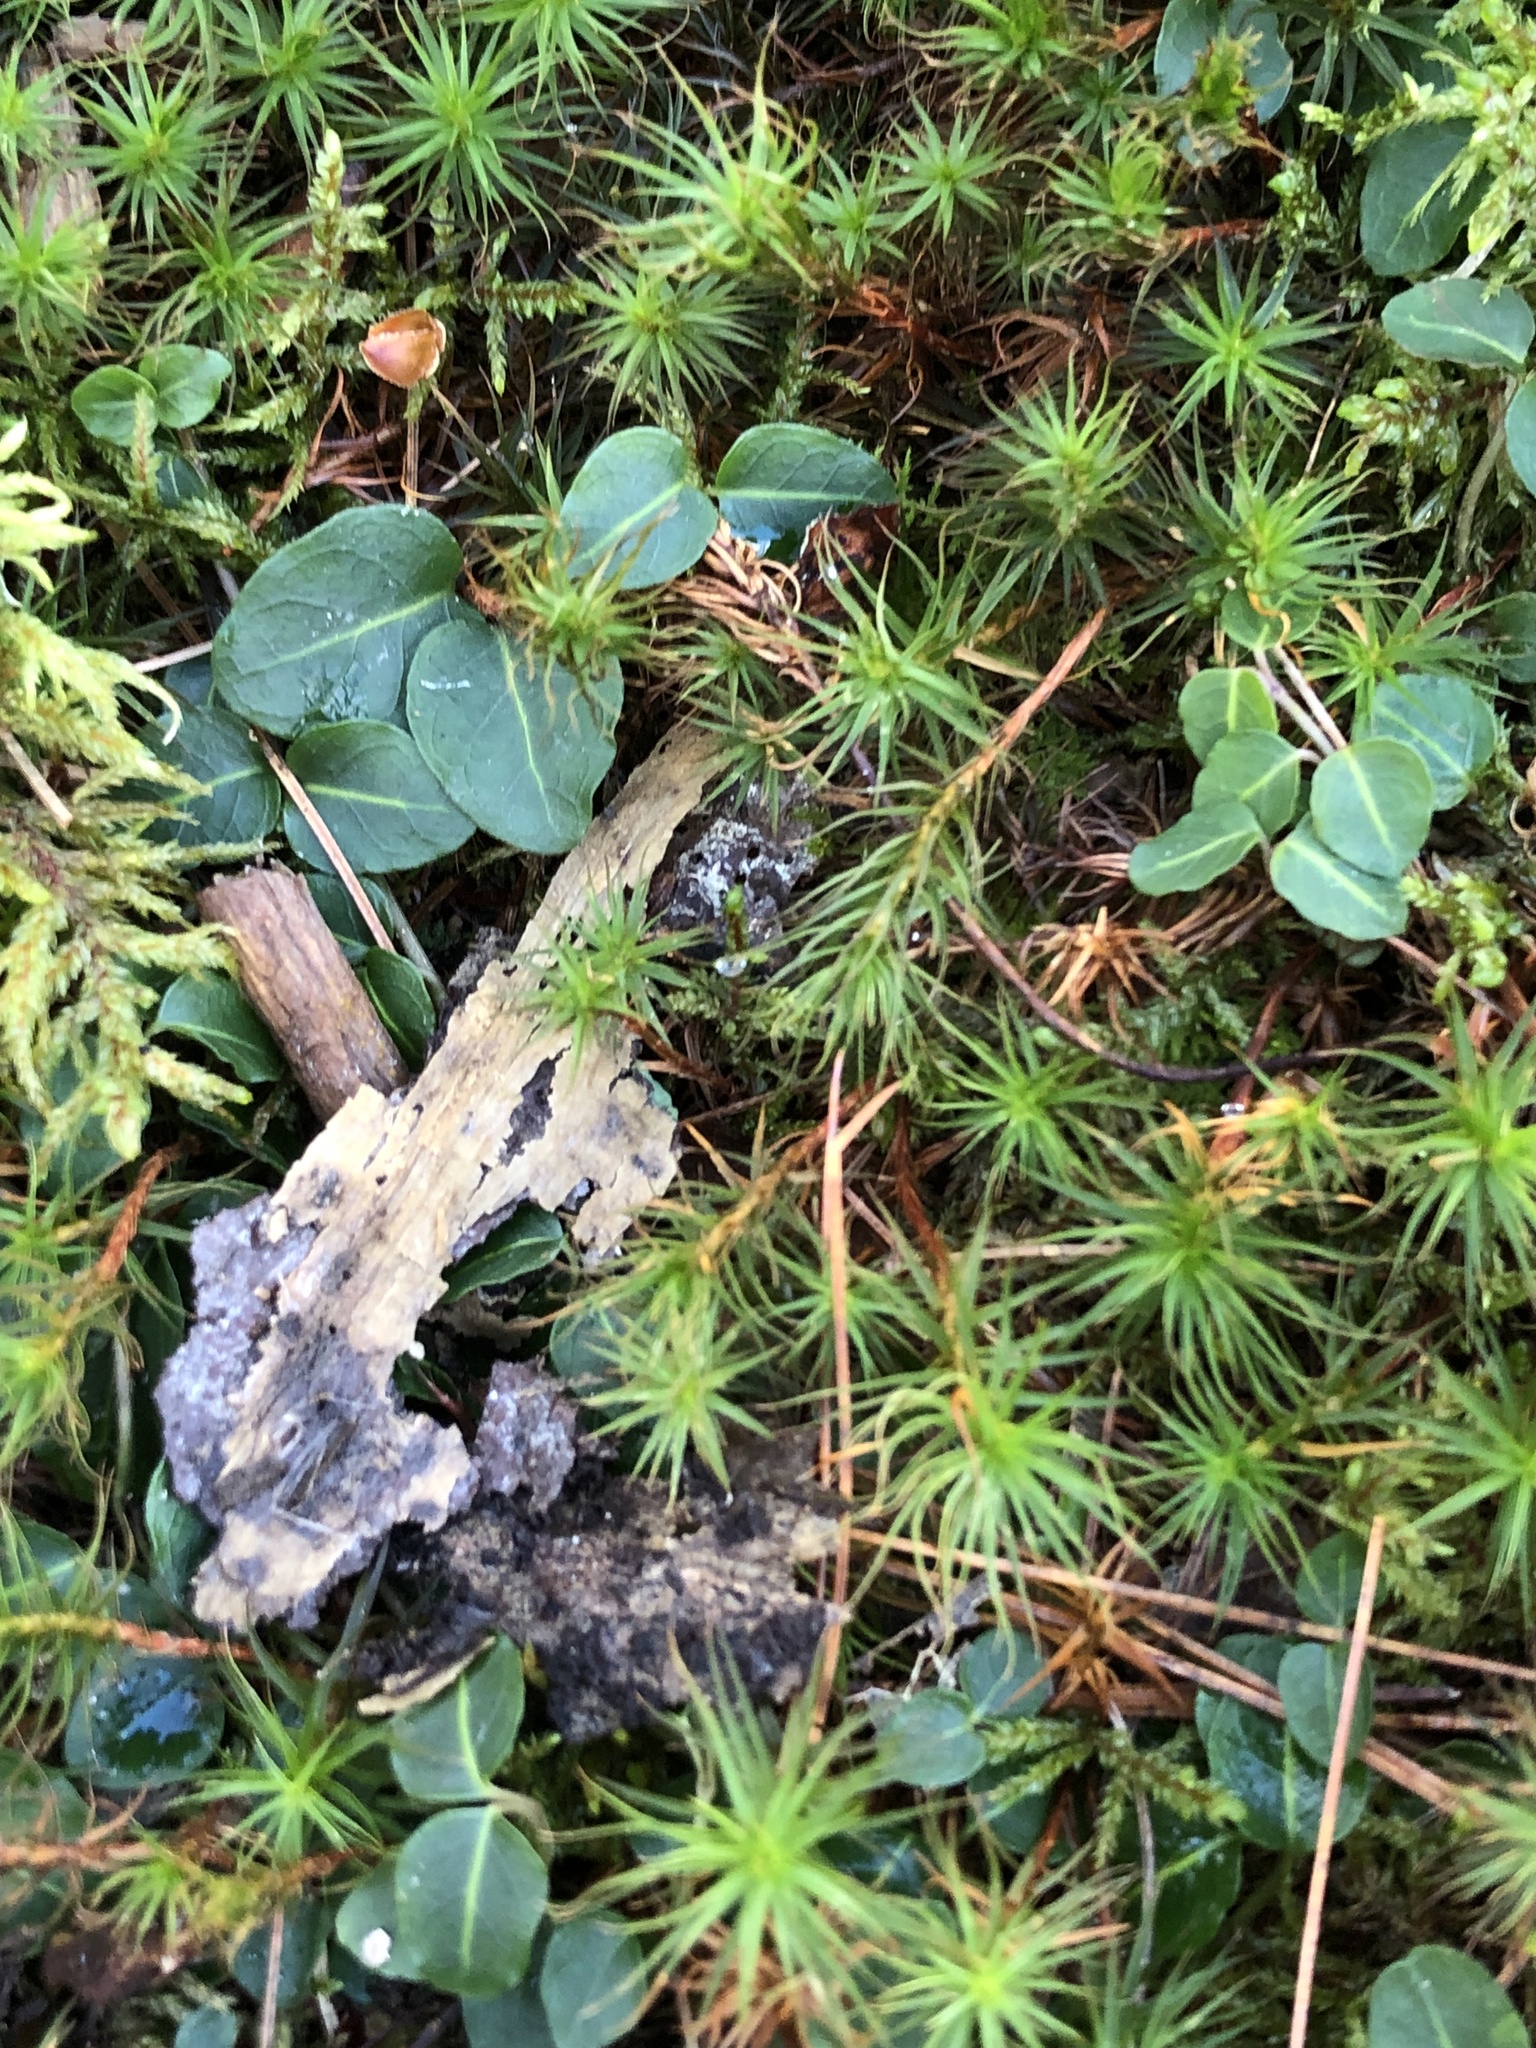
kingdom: Plantae
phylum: Tracheophyta
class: Magnoliopsida
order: Gentianales
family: Rubiaceae
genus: Mitchella
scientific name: Mitchella repens
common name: Partridge-berry
